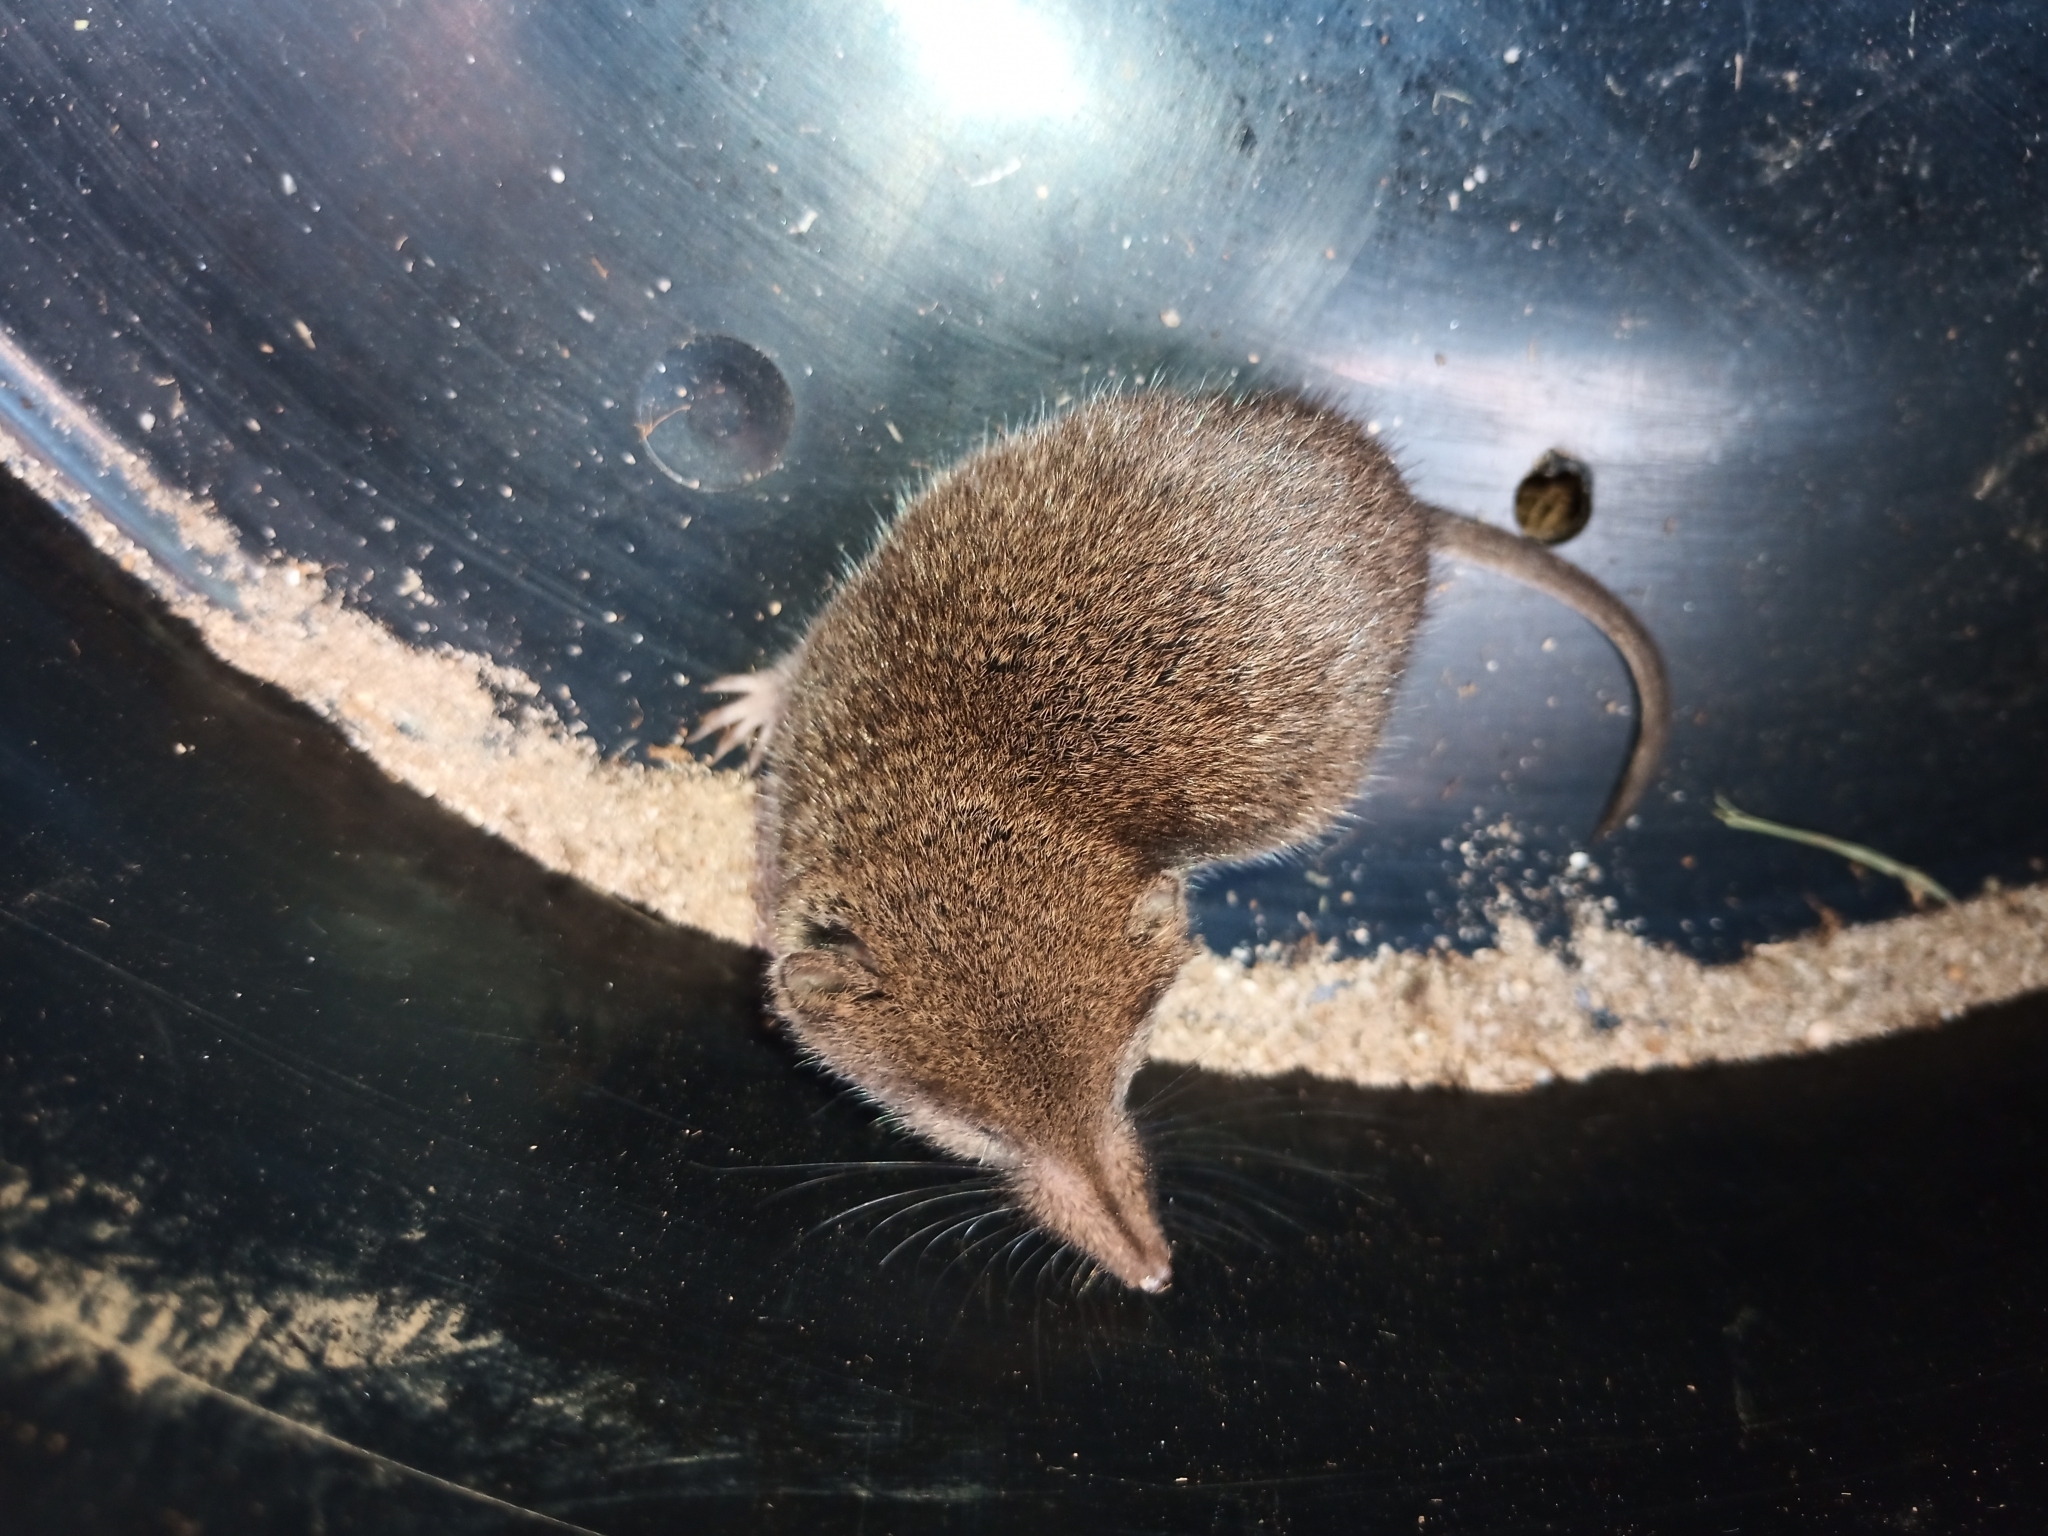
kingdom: Animalia
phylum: Chordata
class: Mammalia
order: Soricomorpha
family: Soricidae
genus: Myosorex
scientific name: Myosorex varius
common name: Forest shrew
